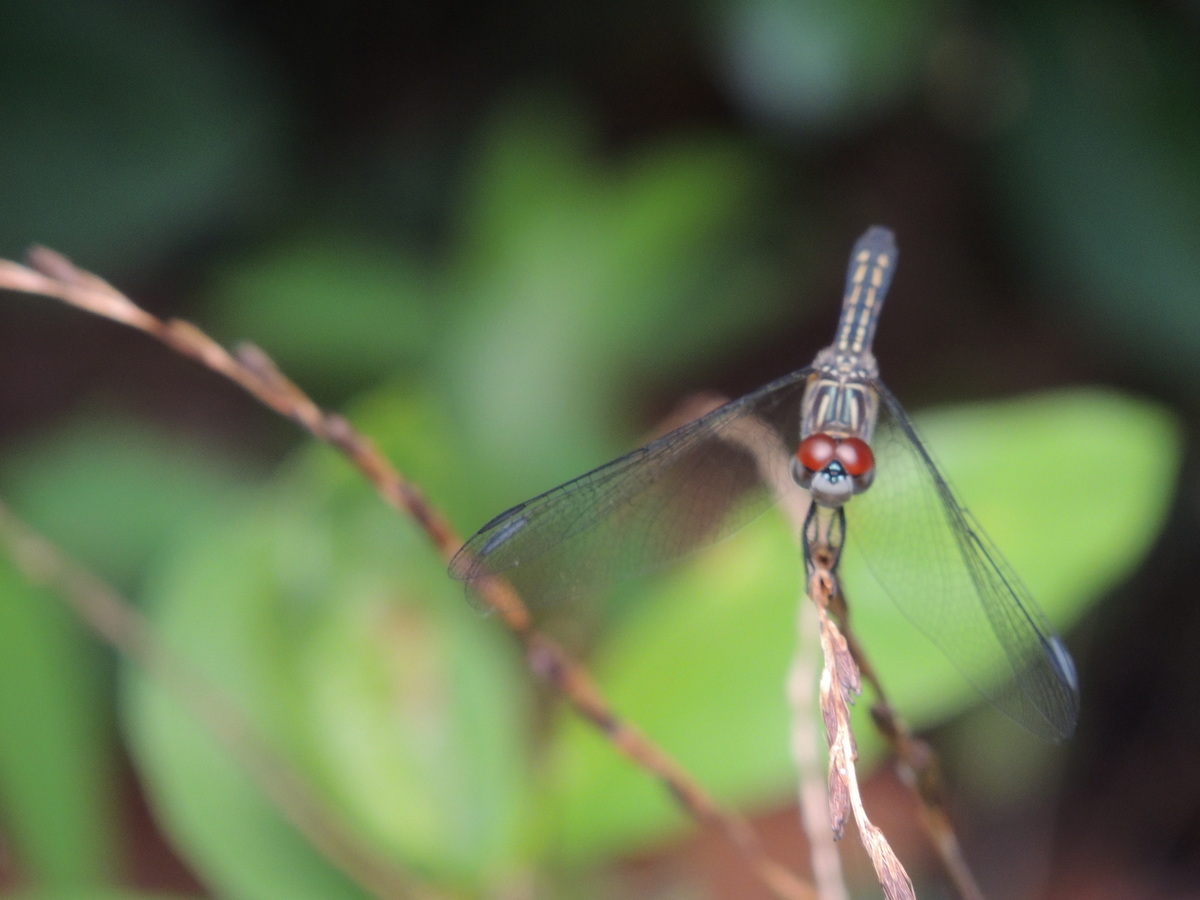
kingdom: Animalia
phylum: Arthropoda
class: Insecta
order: Odonata
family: Libellulidae
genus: Pachydiplax
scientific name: Pachydiplax longipennis
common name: Blue dasher
